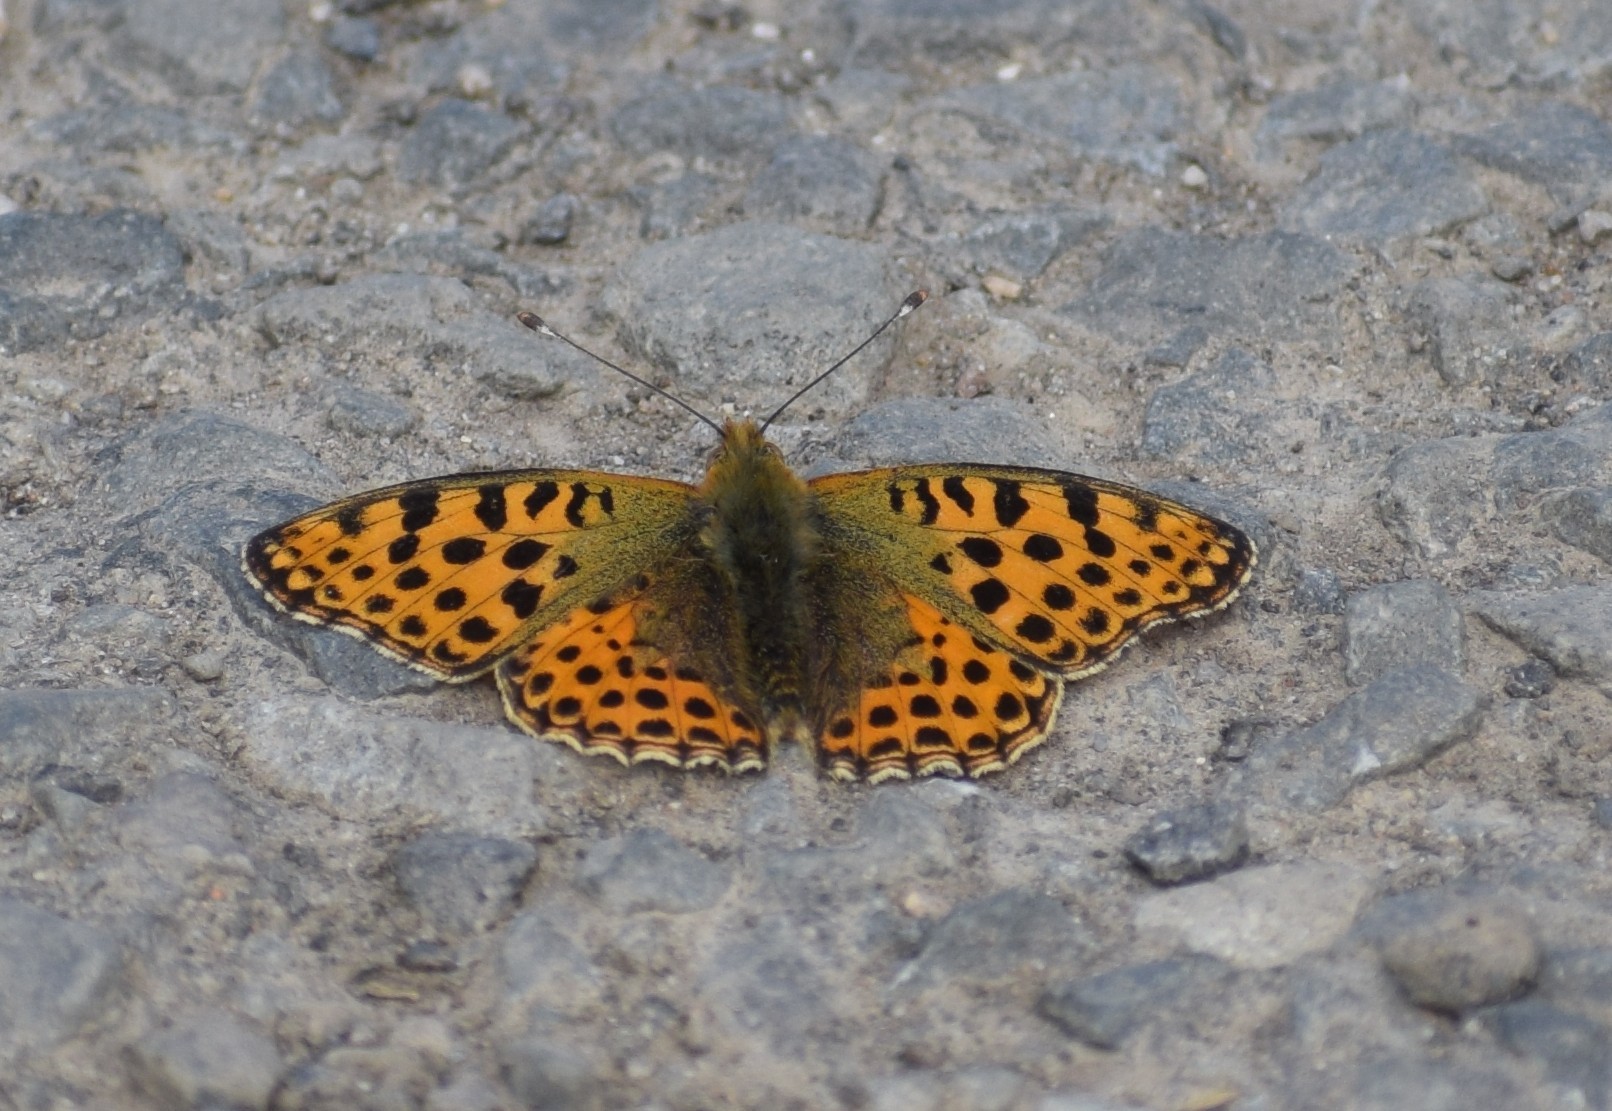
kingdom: Animalia
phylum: Arthropoda
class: Insecta
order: Lepidoptera
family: Nymphalidae
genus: Issoria
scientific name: Issoria lathonia
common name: Queen of spain fritillary
